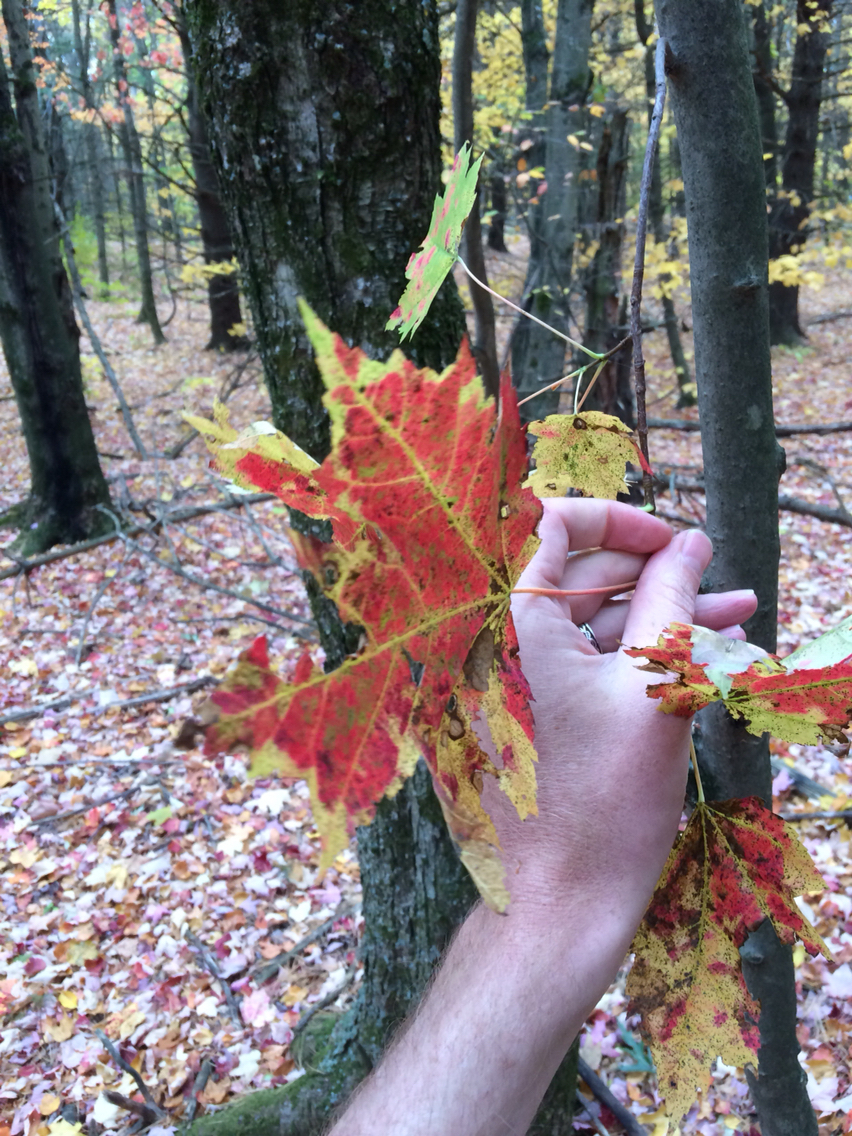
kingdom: Plantae
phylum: Tracheophyta
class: Magnoliopsida
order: Sapindales
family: Sapindaceae
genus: Acer
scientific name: Acer rubrum
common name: Red maple
